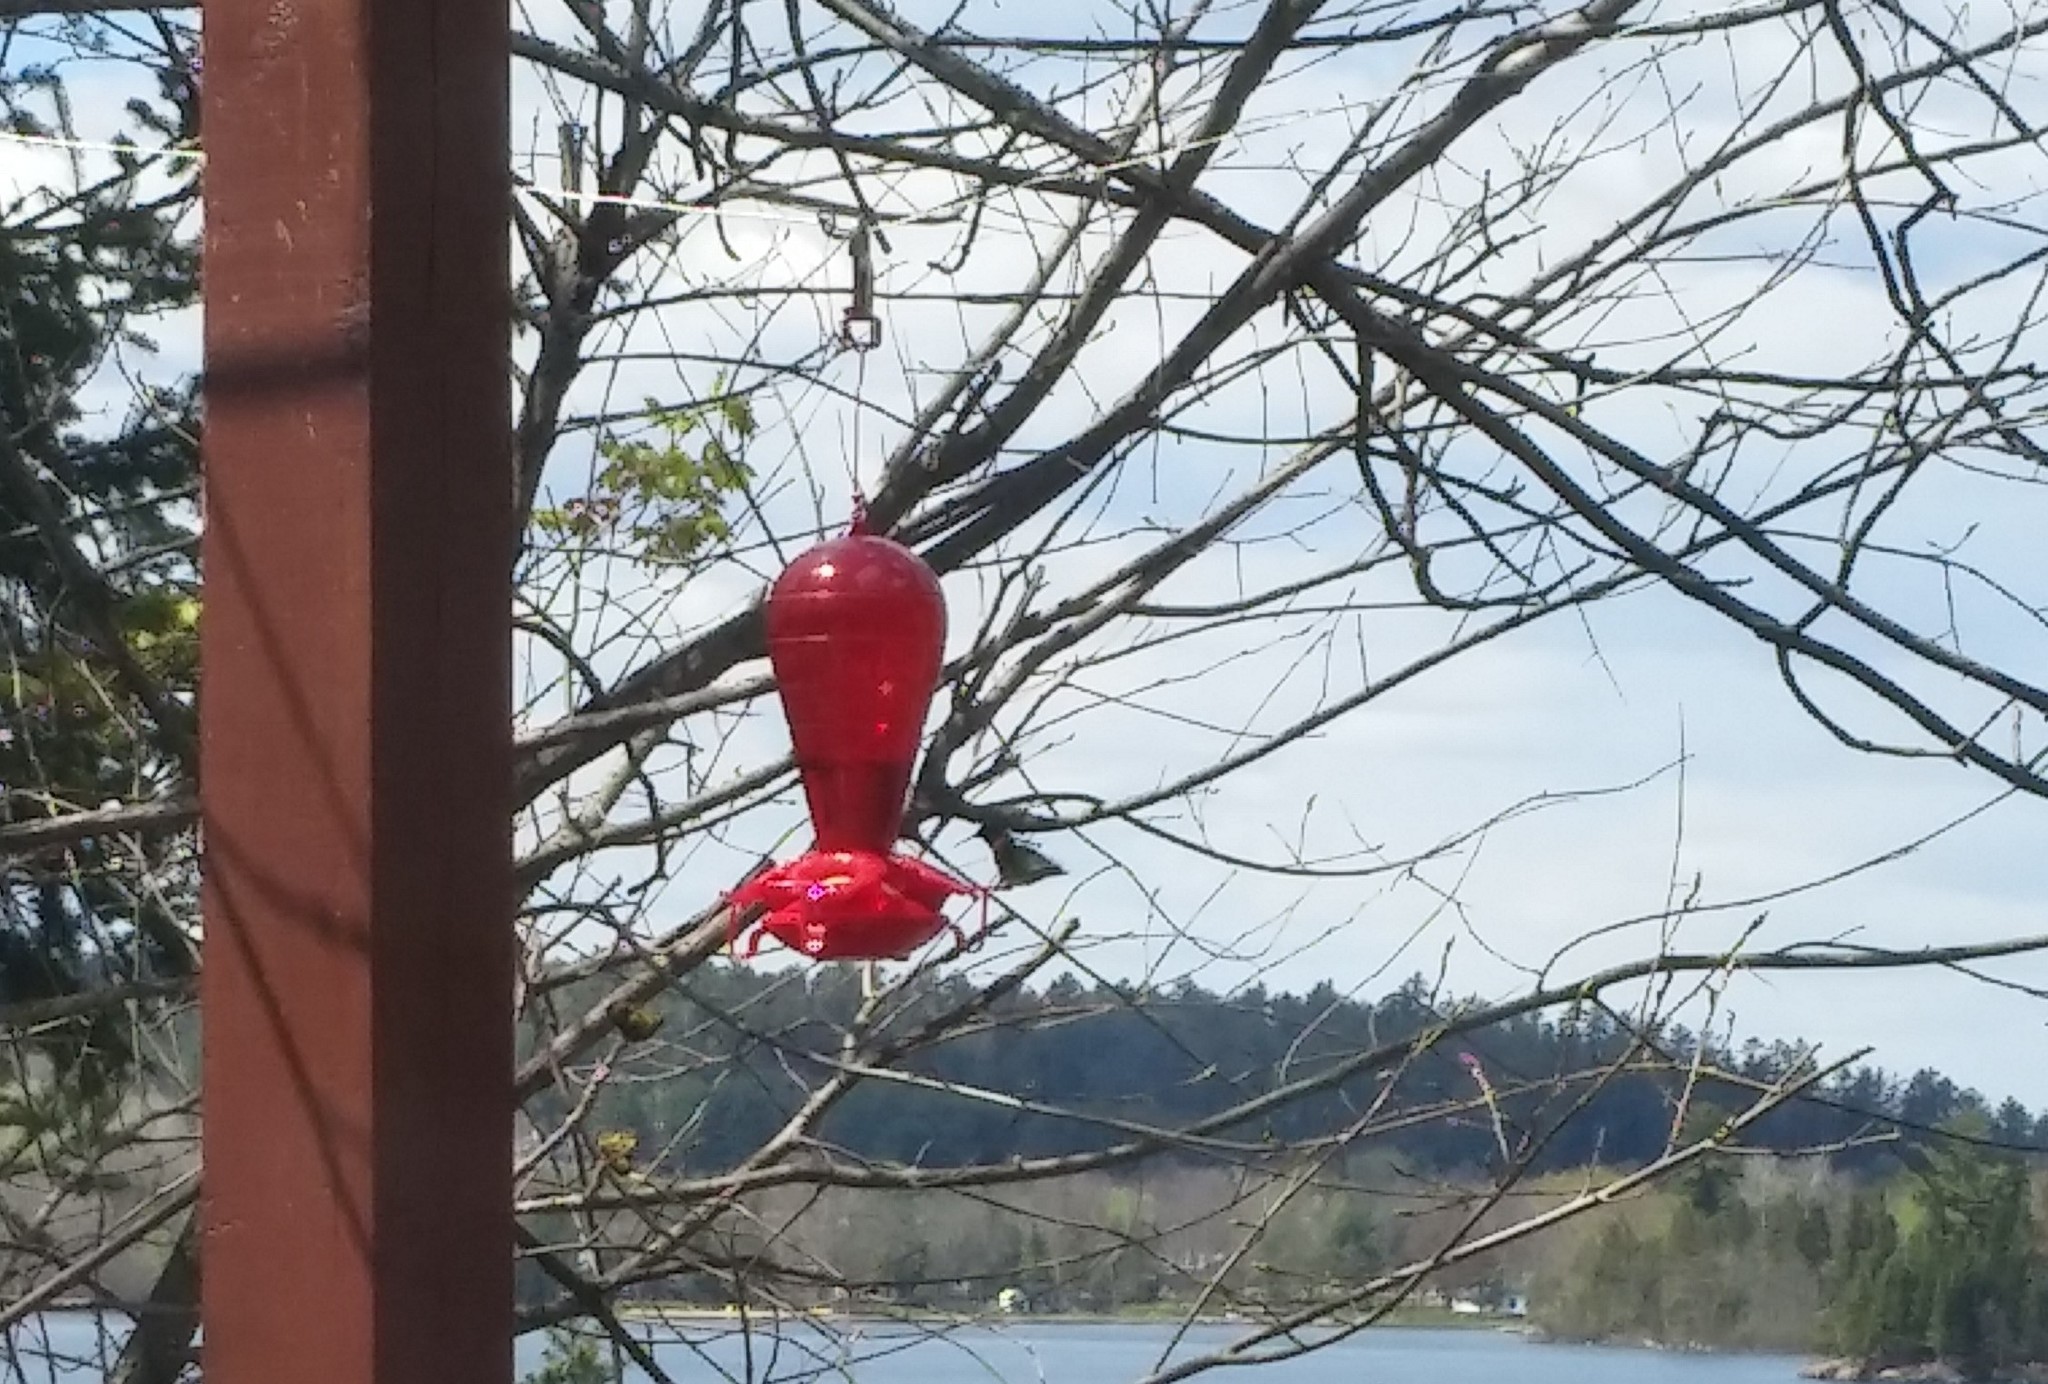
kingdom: Animalia
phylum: Chordata
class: Aves
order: Apodiformes
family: Trochilidae
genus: Archilochus
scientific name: Archilochus colubris
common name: Ruby-throated hummingbird
